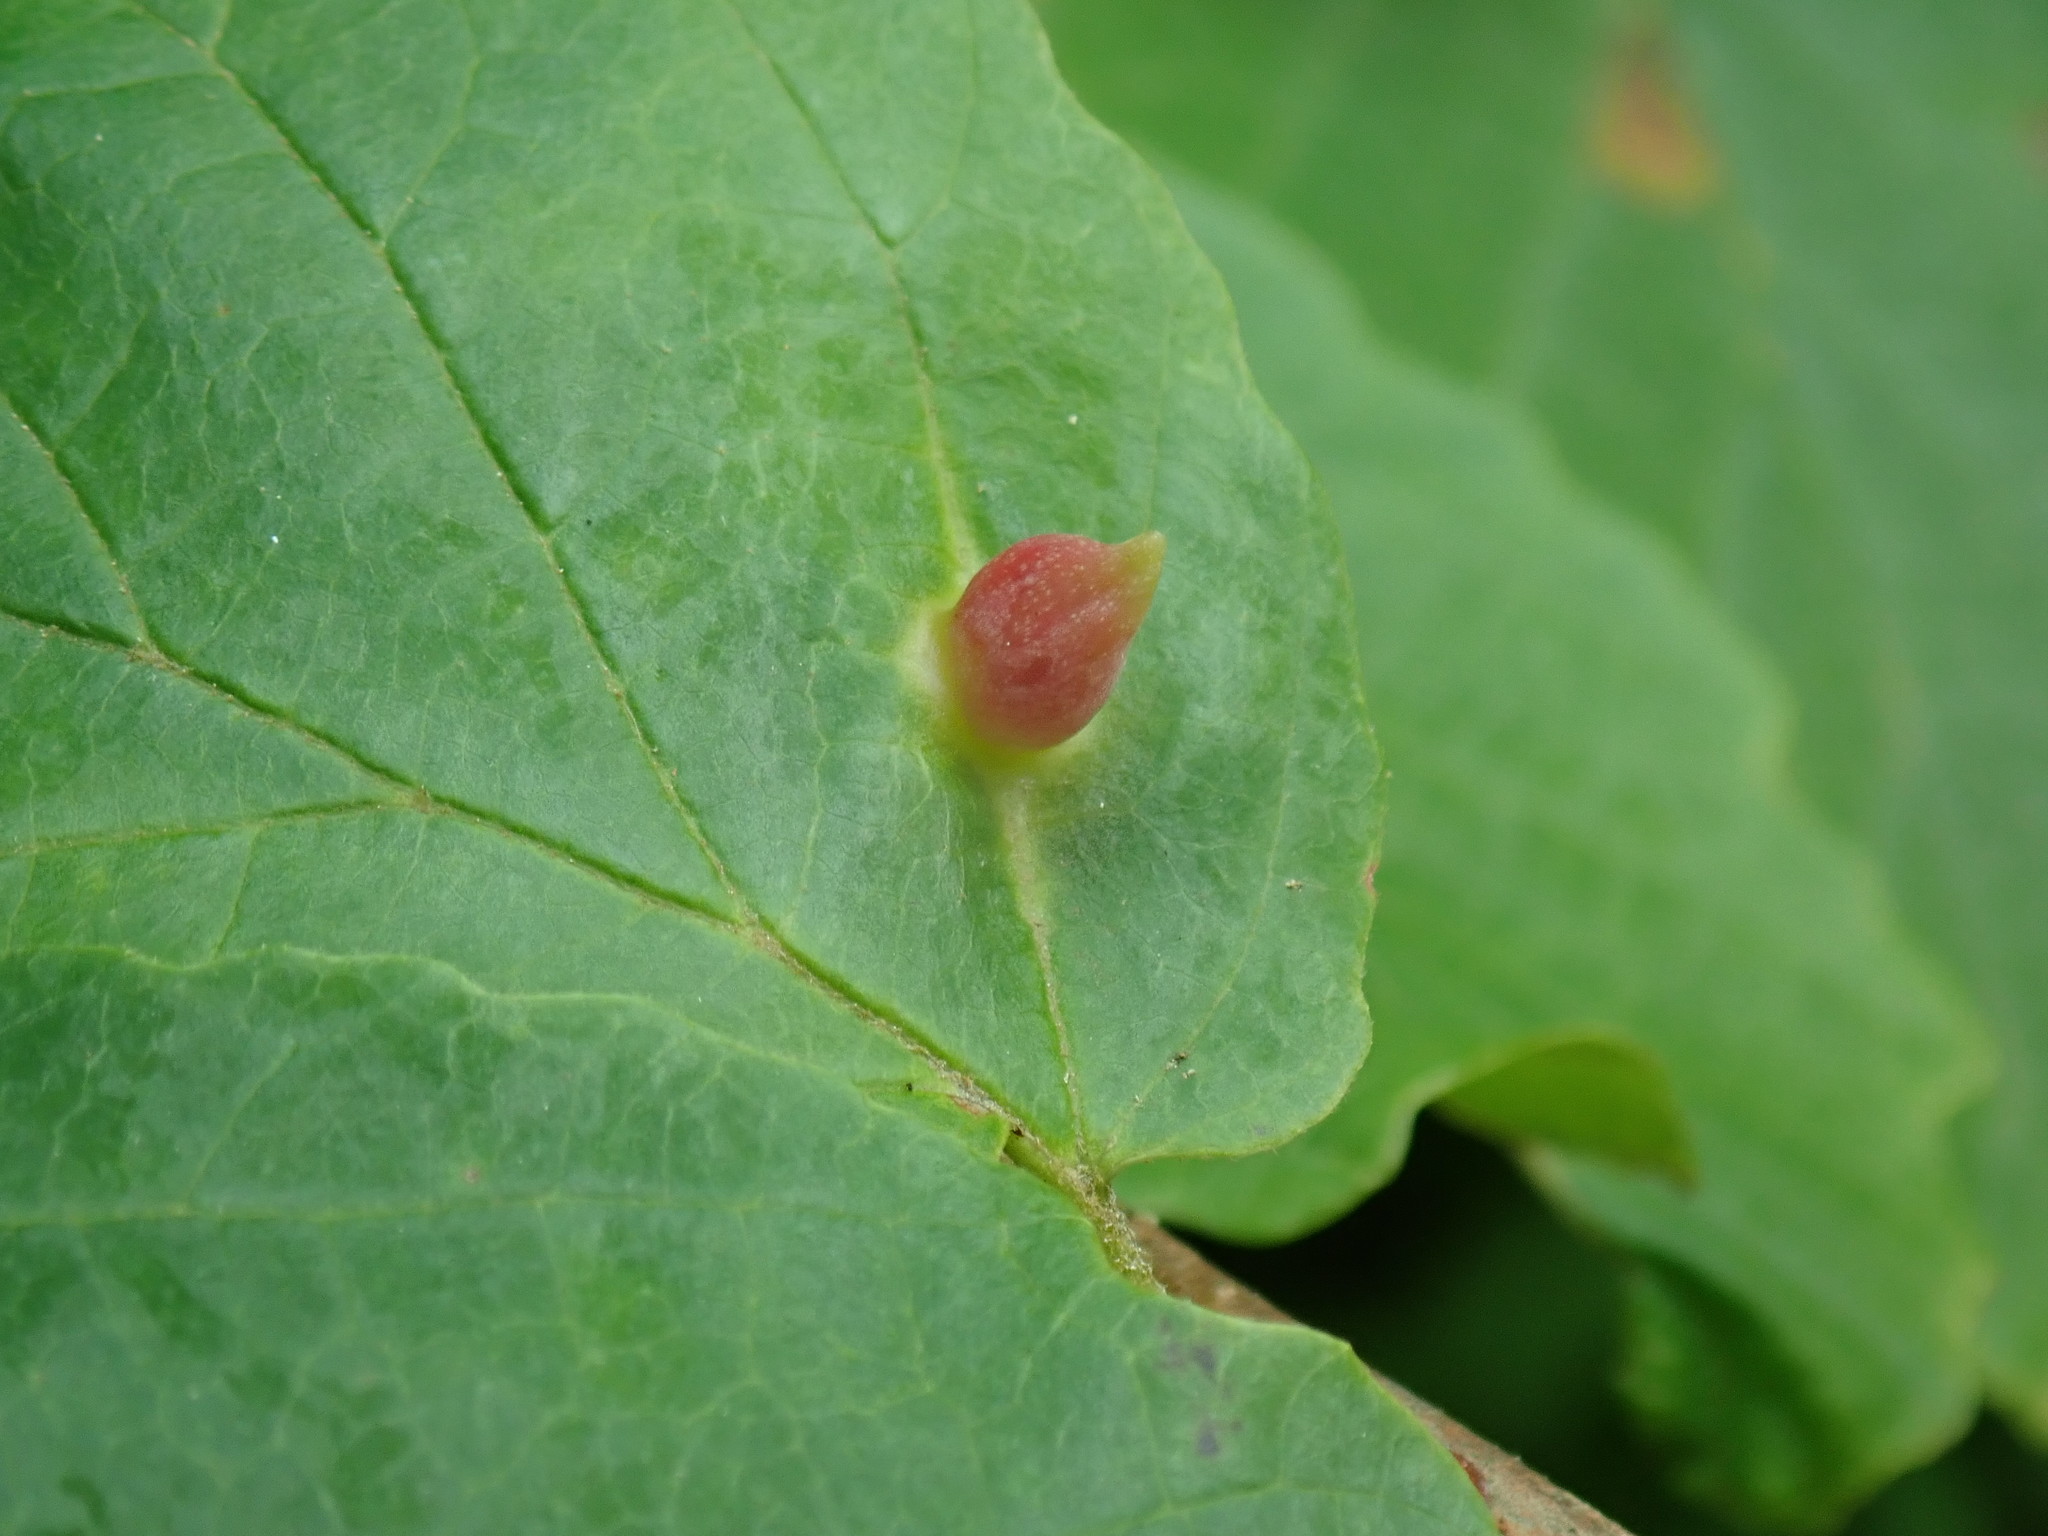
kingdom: Animalia
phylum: Arthropoda
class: Insecta
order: Hemiptera
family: Aphididae
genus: Hormaphis
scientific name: Hormaphis hamamelidis
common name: Witch-hazel cone gall aphid
